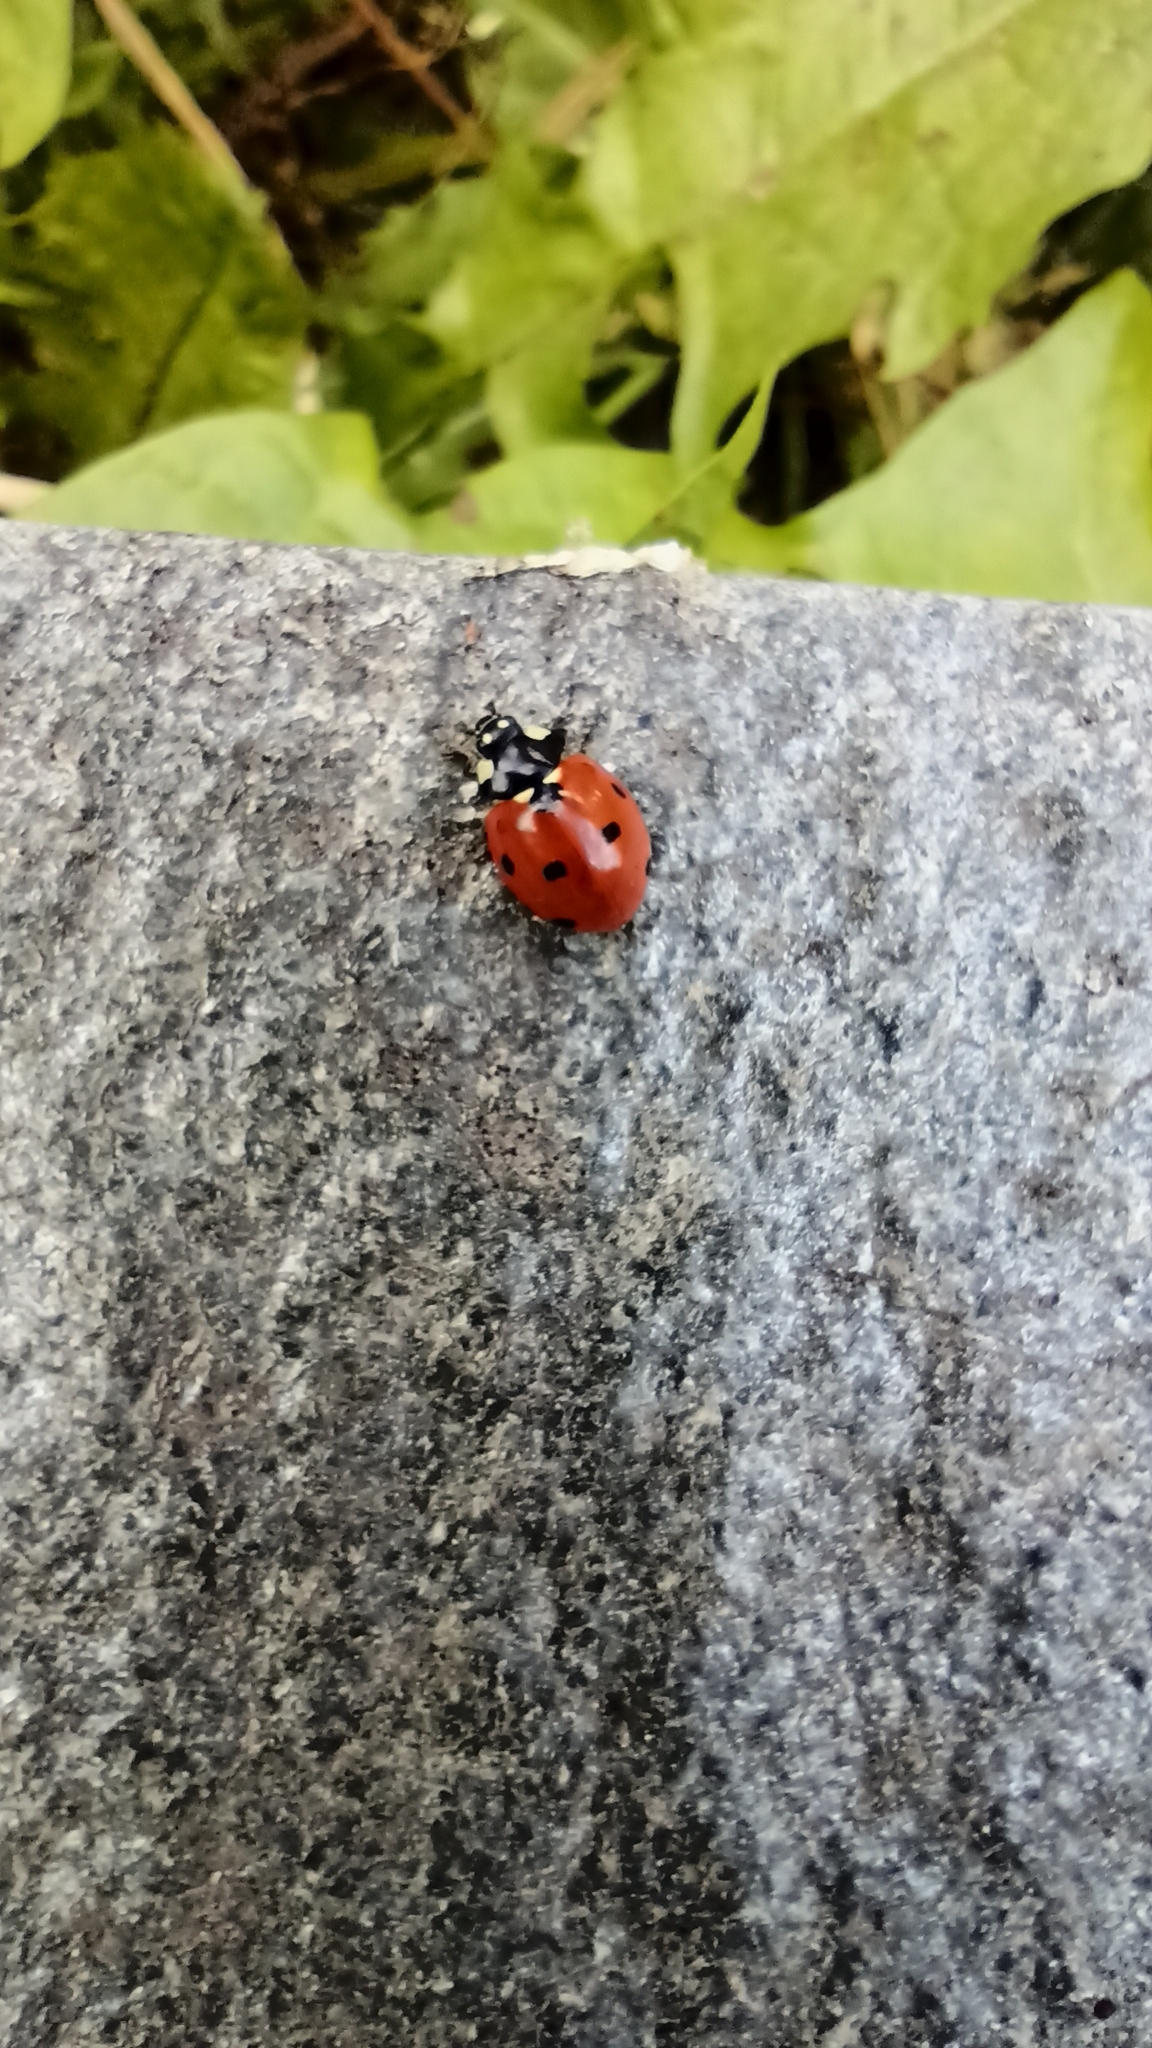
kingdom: Animalia
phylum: Arthropoda
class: Insecta
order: Coleoptera
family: Coccinellidae
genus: Coccinella
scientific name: Coccinella septempunctata
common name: Sevenspotted lady beetle
